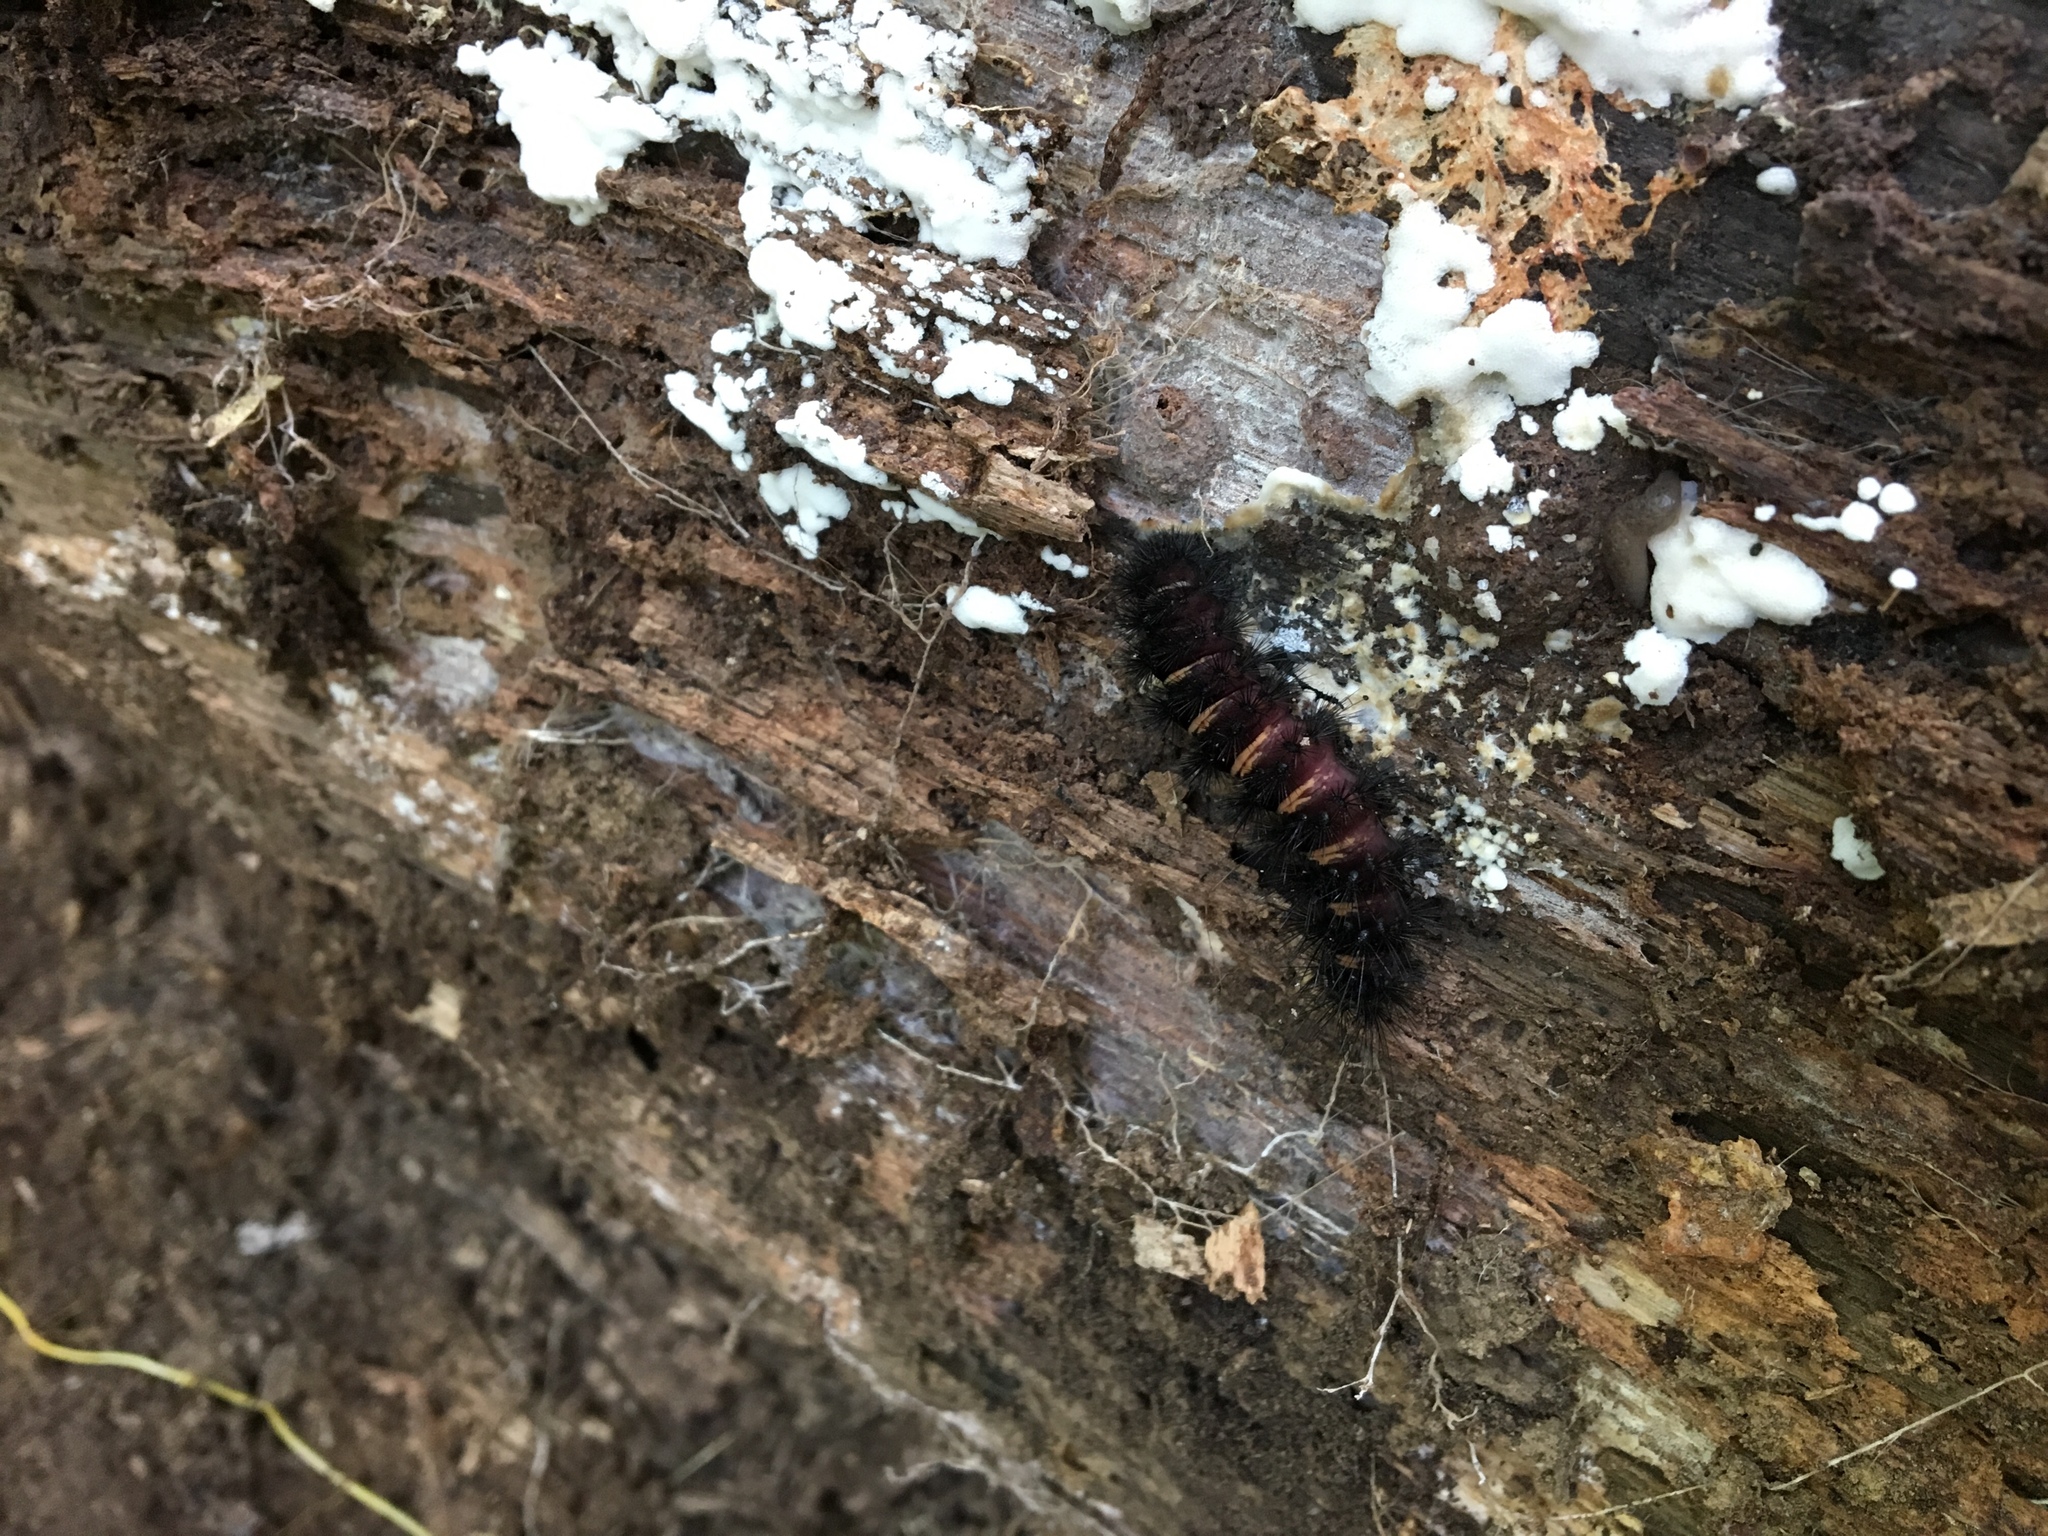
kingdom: Animalia
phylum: Arthropoda
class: Insecta
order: Lepidoptera
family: Erebidae
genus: Spilosoma
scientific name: Spilosoma congrua
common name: Agreeable tiger moth
